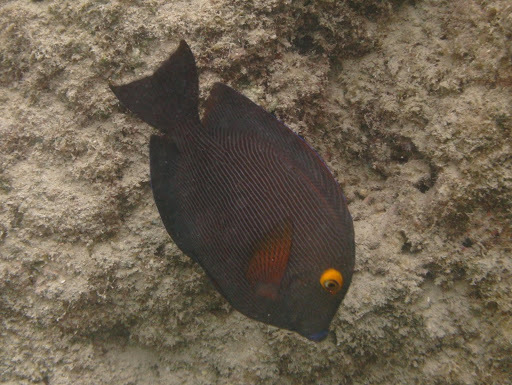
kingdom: Animalia
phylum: Chordata
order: Perciformes
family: Acanthuridae
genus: Ctenochaetus
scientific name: Ctenochaetus strigosus
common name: Bristletoothed surgeonfish
